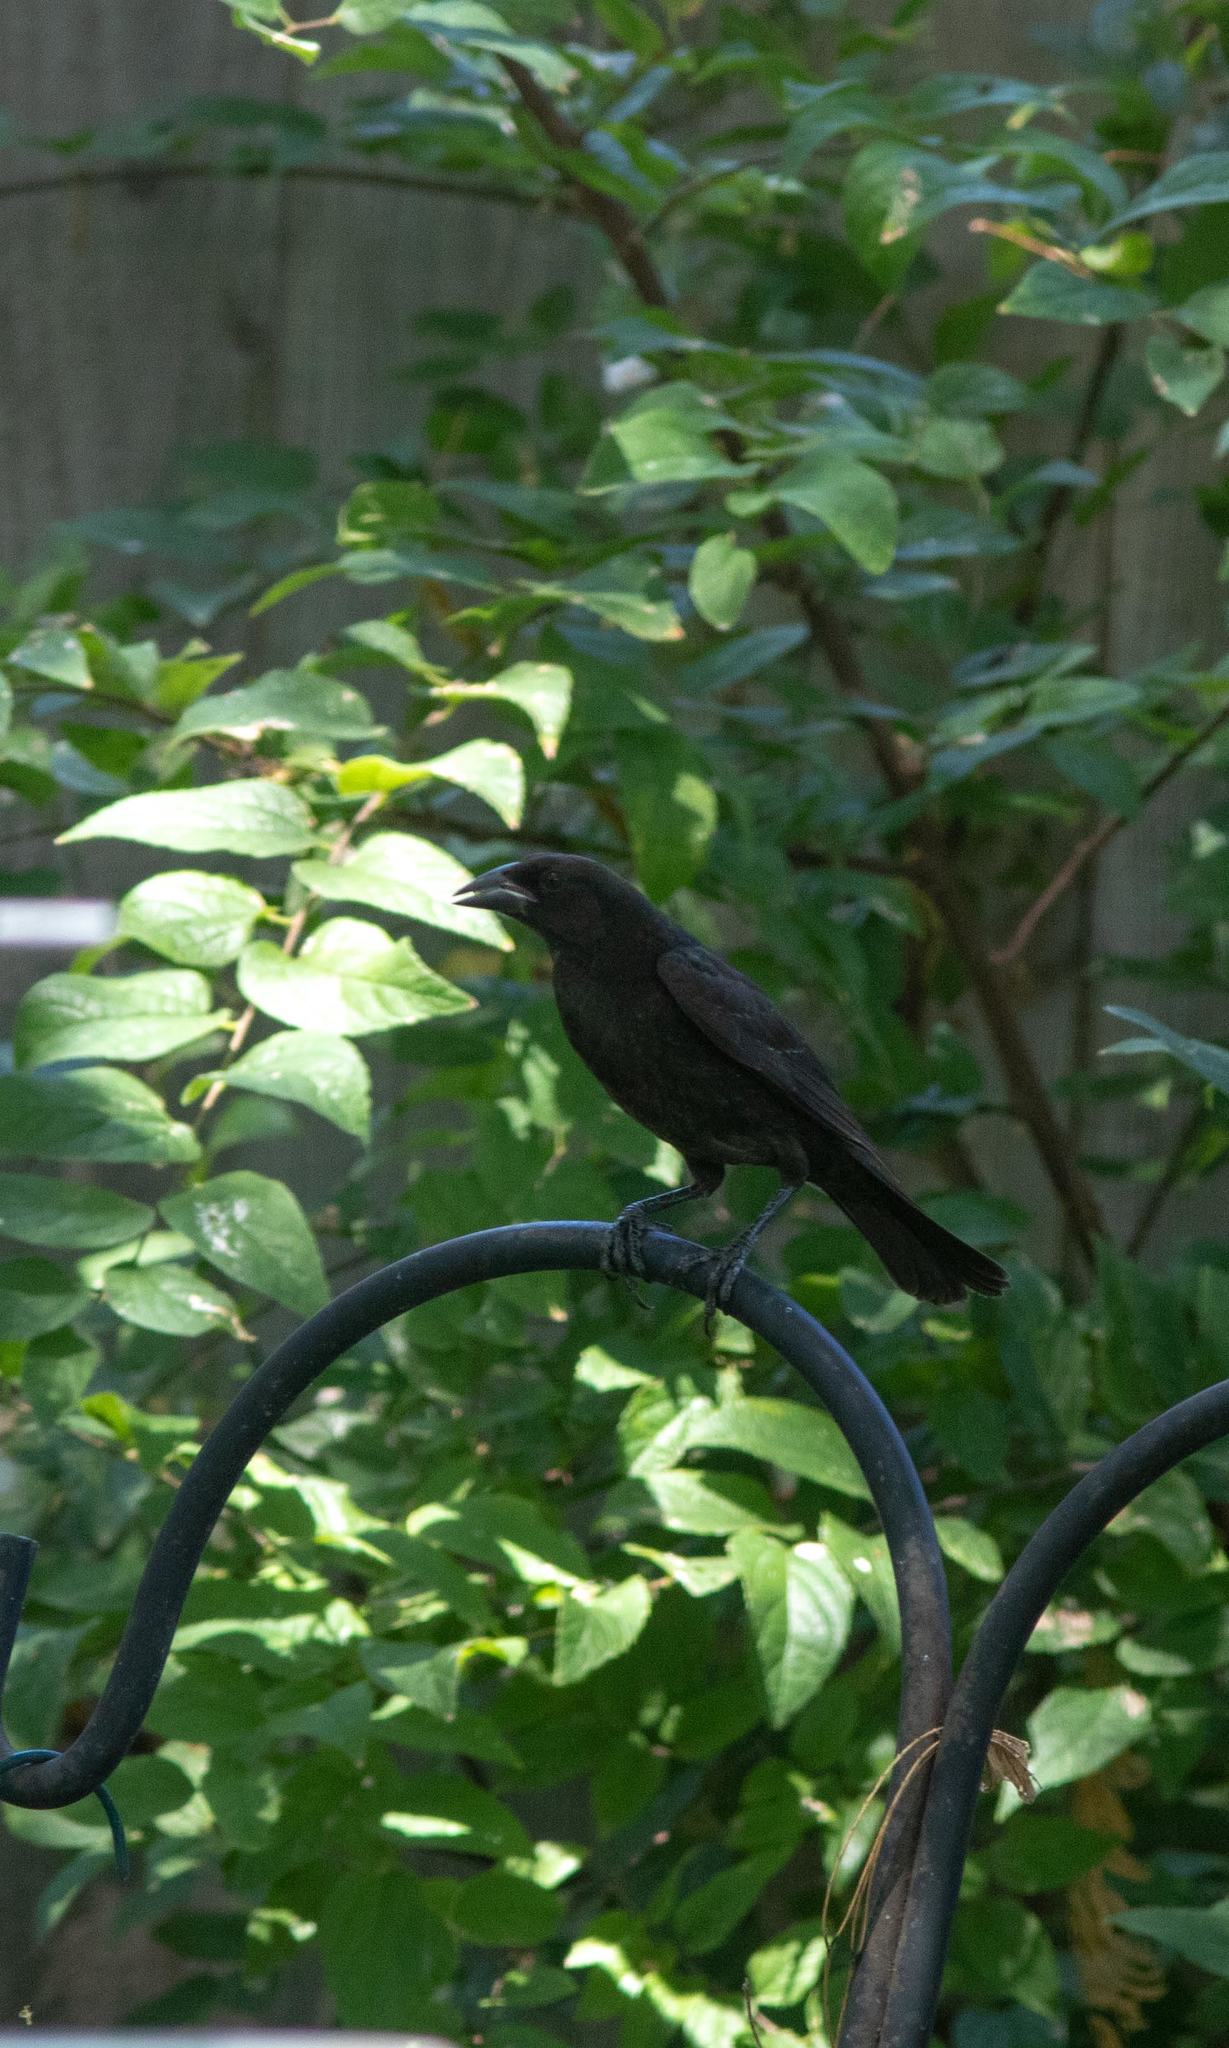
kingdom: Animalia
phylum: Chordata
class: Aves
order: Passeriformes
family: Icteridae
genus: Molothrus
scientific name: Molothrus aeneus
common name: Bronzed cowbird
